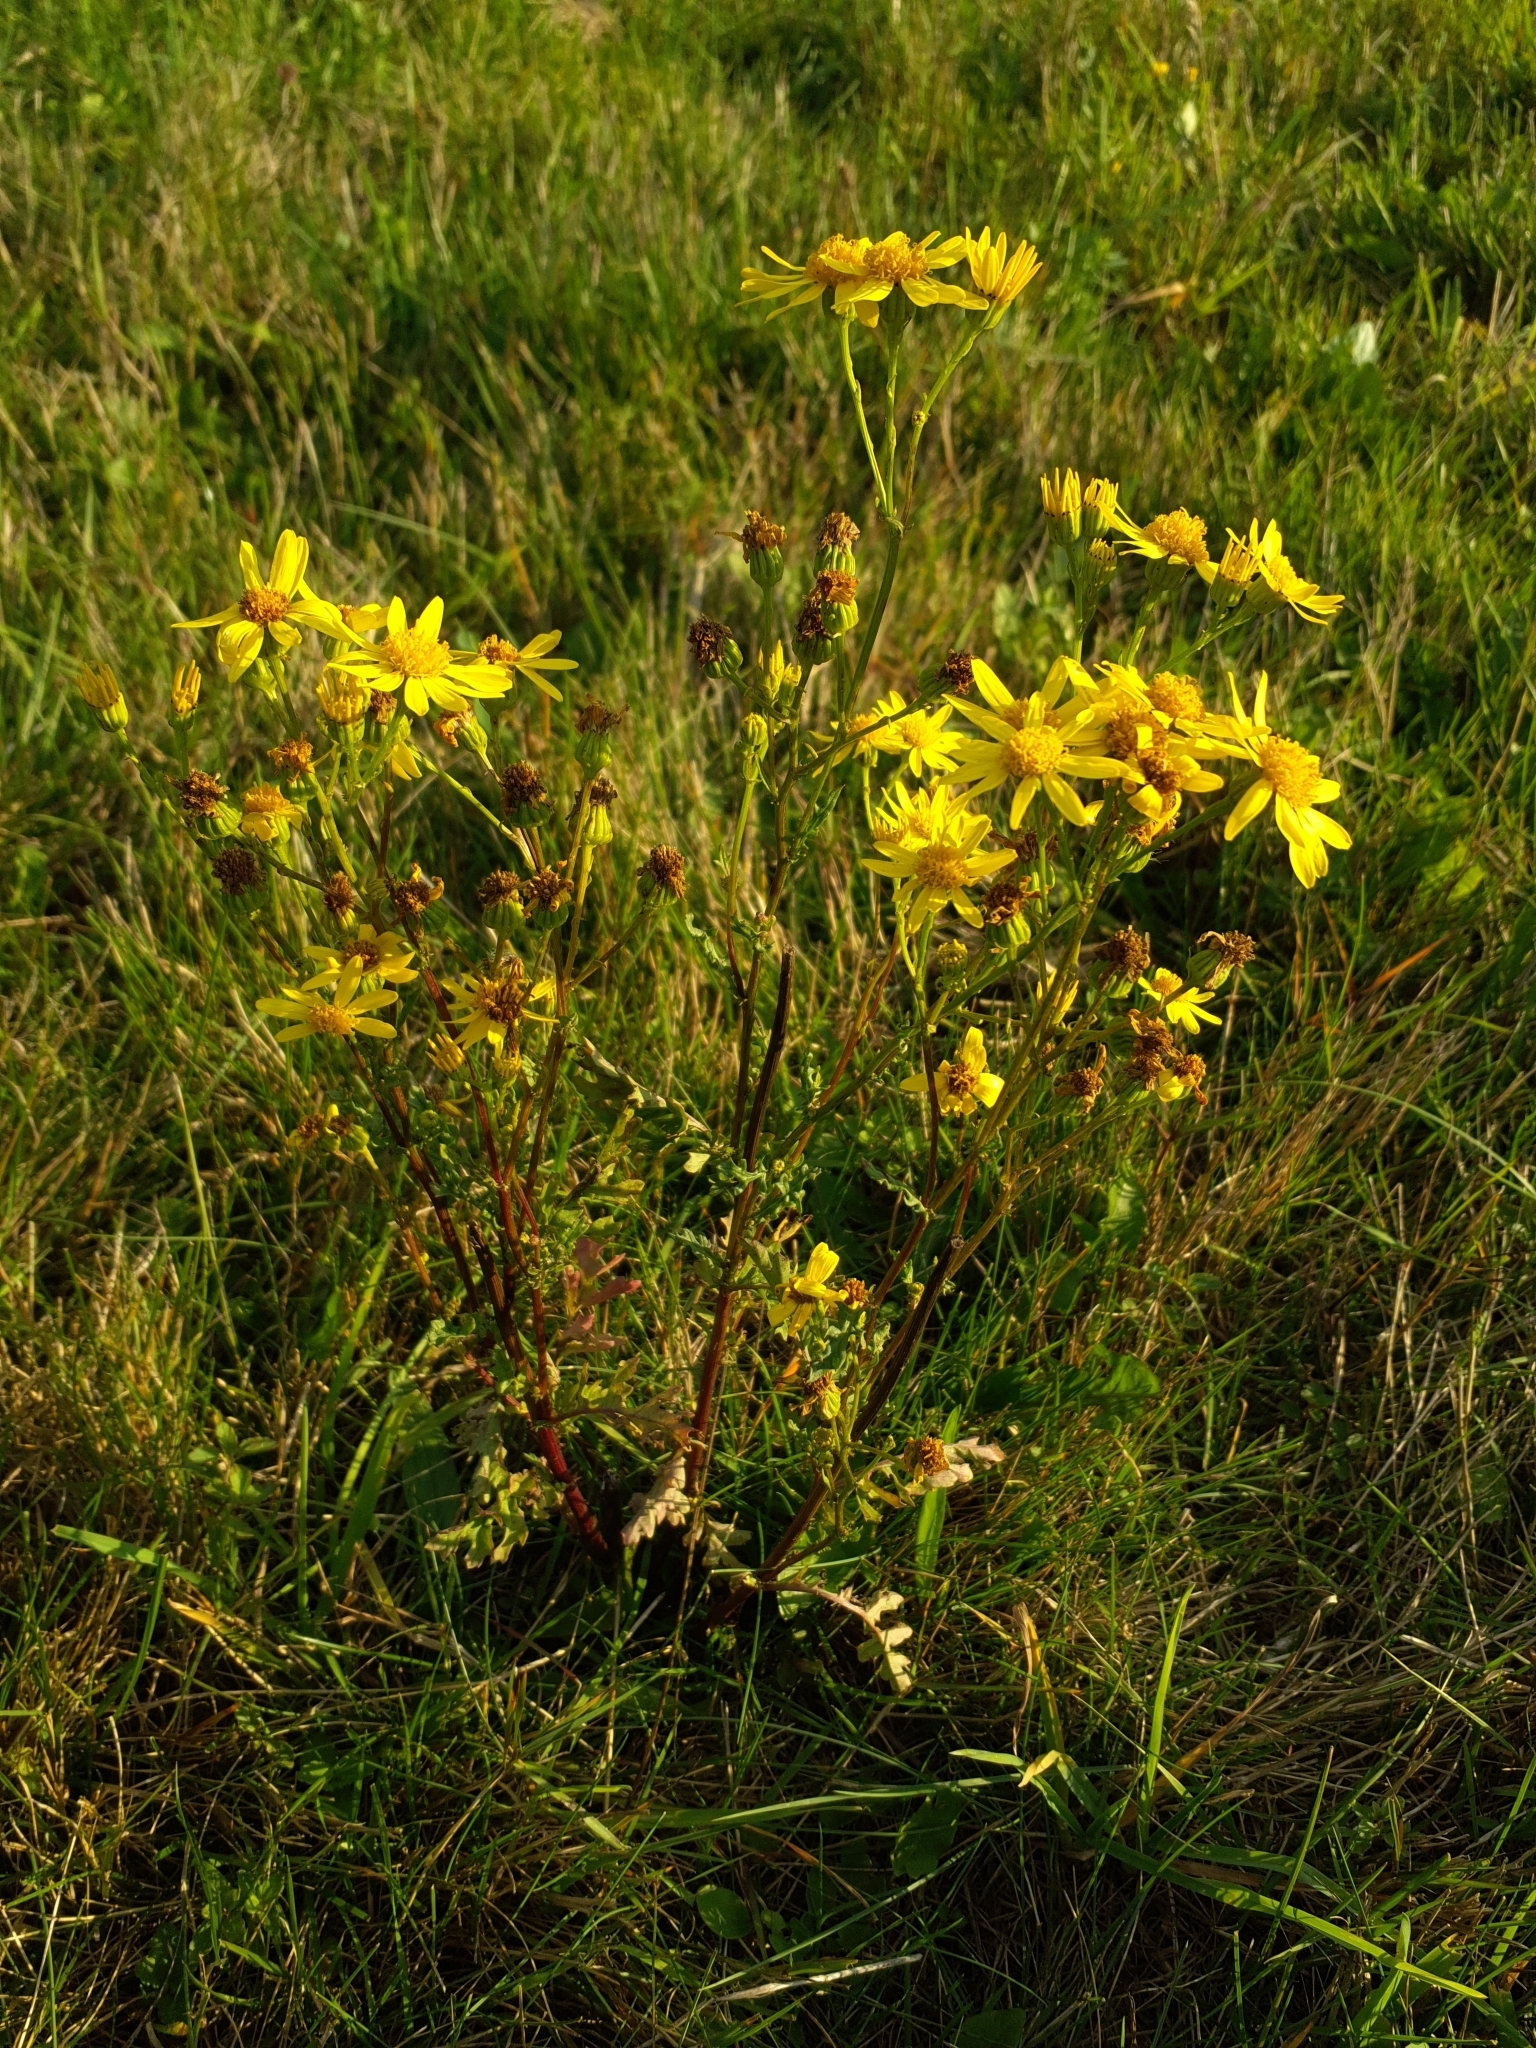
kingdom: Plantae
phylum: Tracheophyta
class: Magnoliopsida
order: Asterales
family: Asteraceae
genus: Jacobaea
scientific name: Jacobaea vulgaris
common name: Stinking willie
